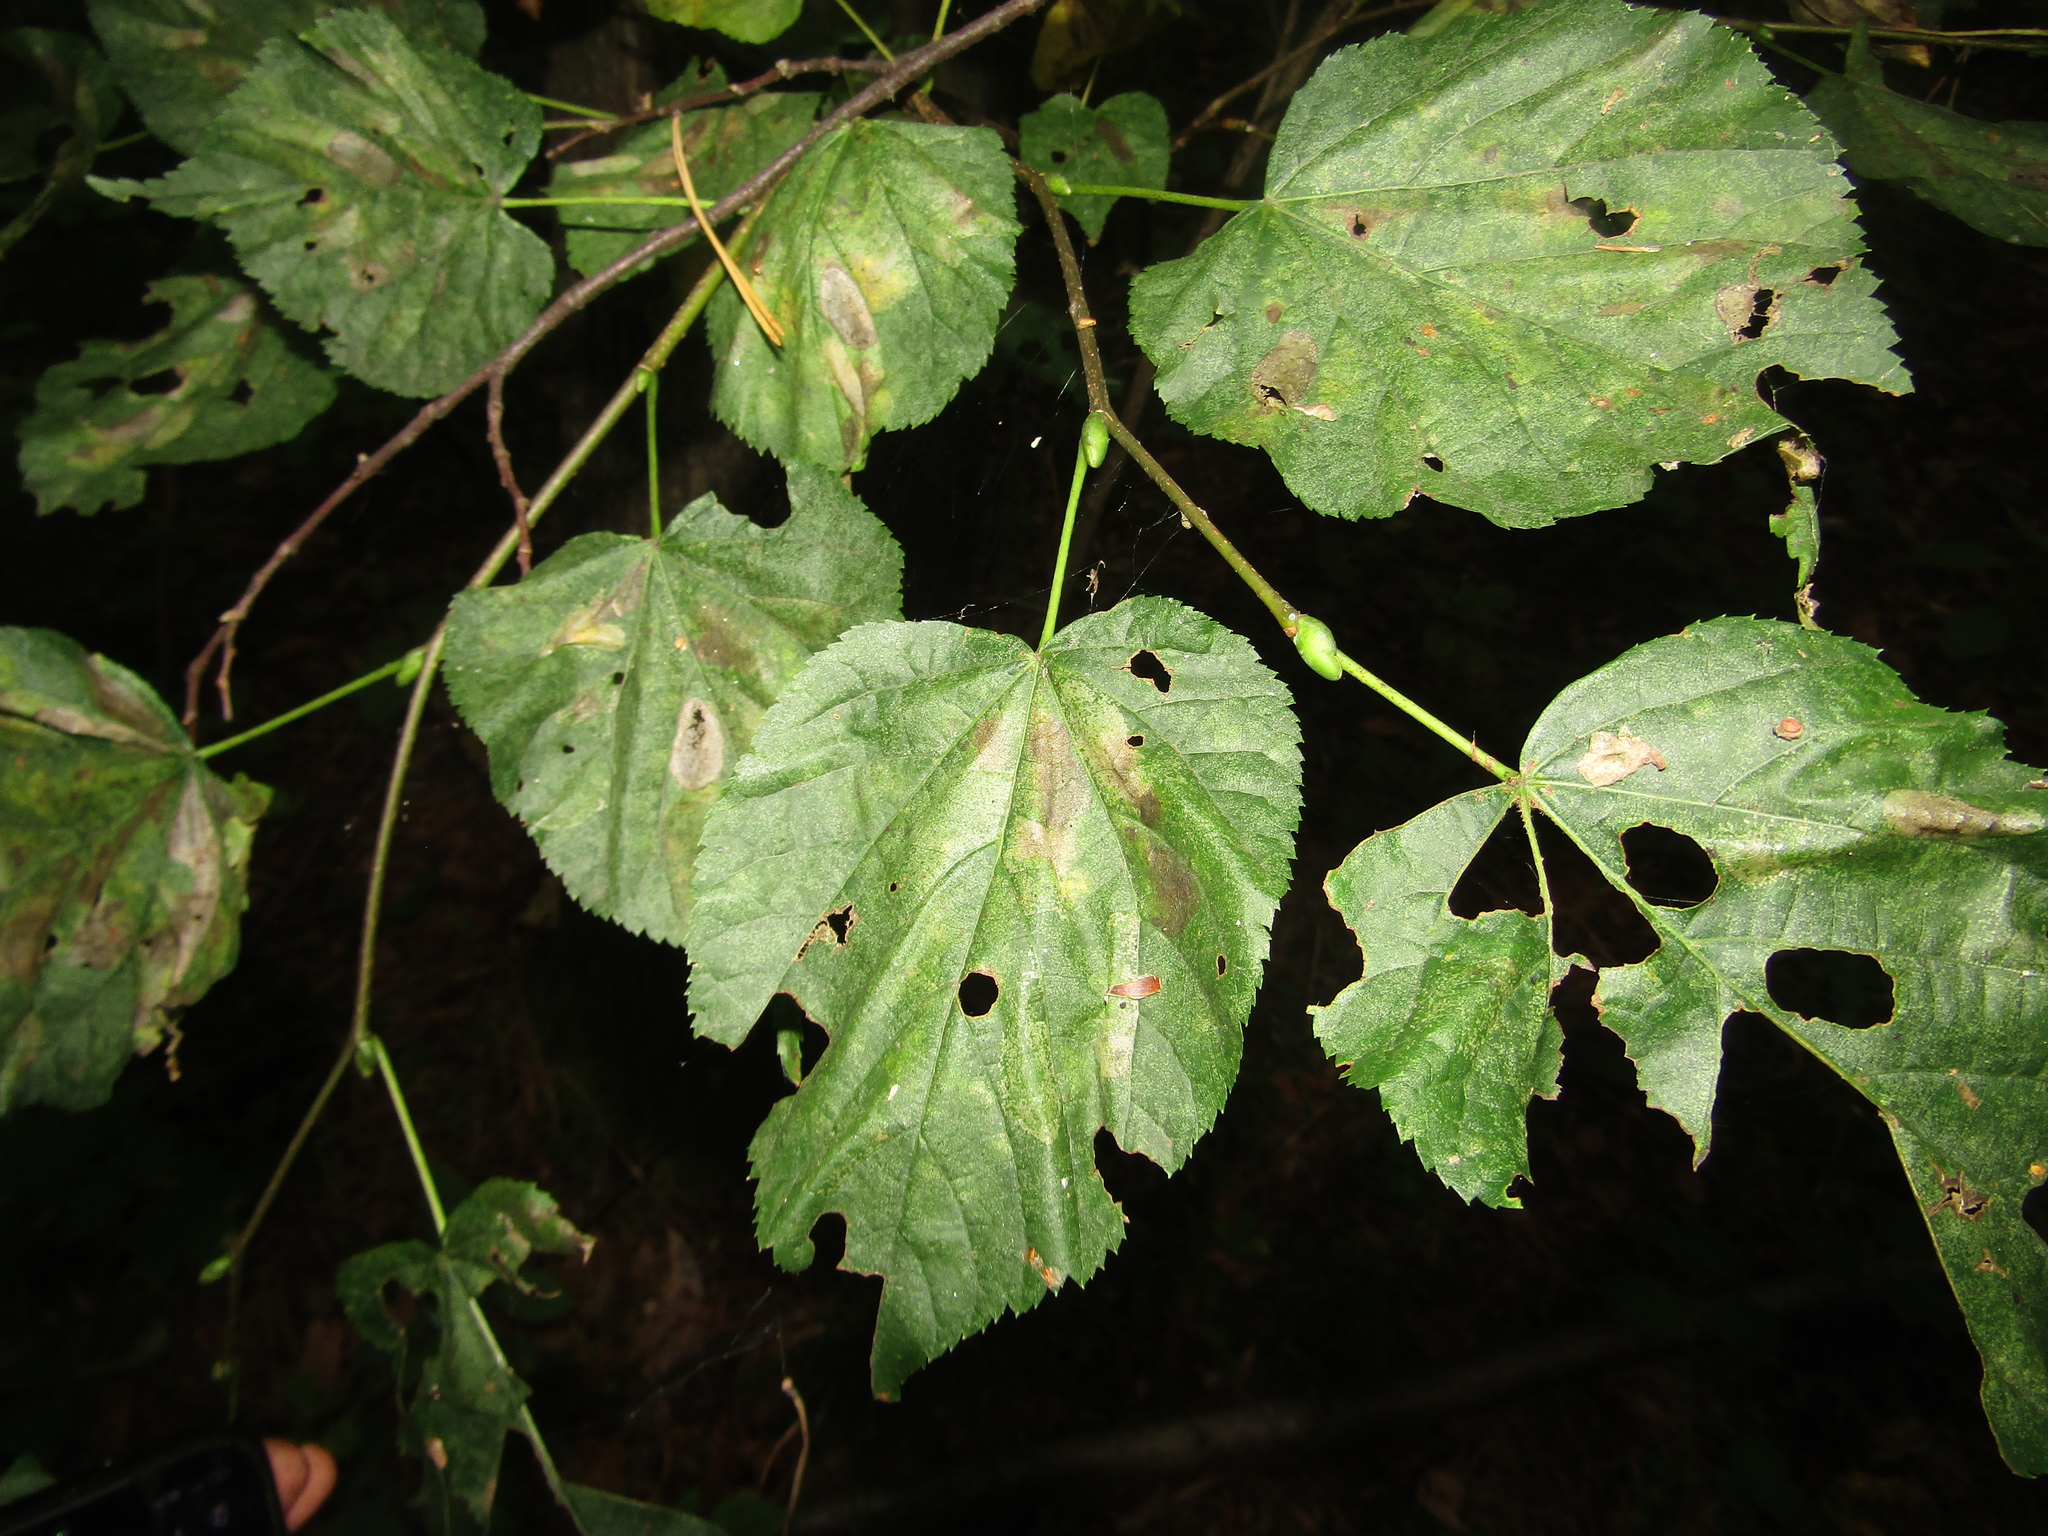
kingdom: Plantae
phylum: Tracheophyta
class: Magnoliopsida
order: Malvales
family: Malvaceae
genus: Tilia
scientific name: Tilia cordata
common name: Small-leaved lime
